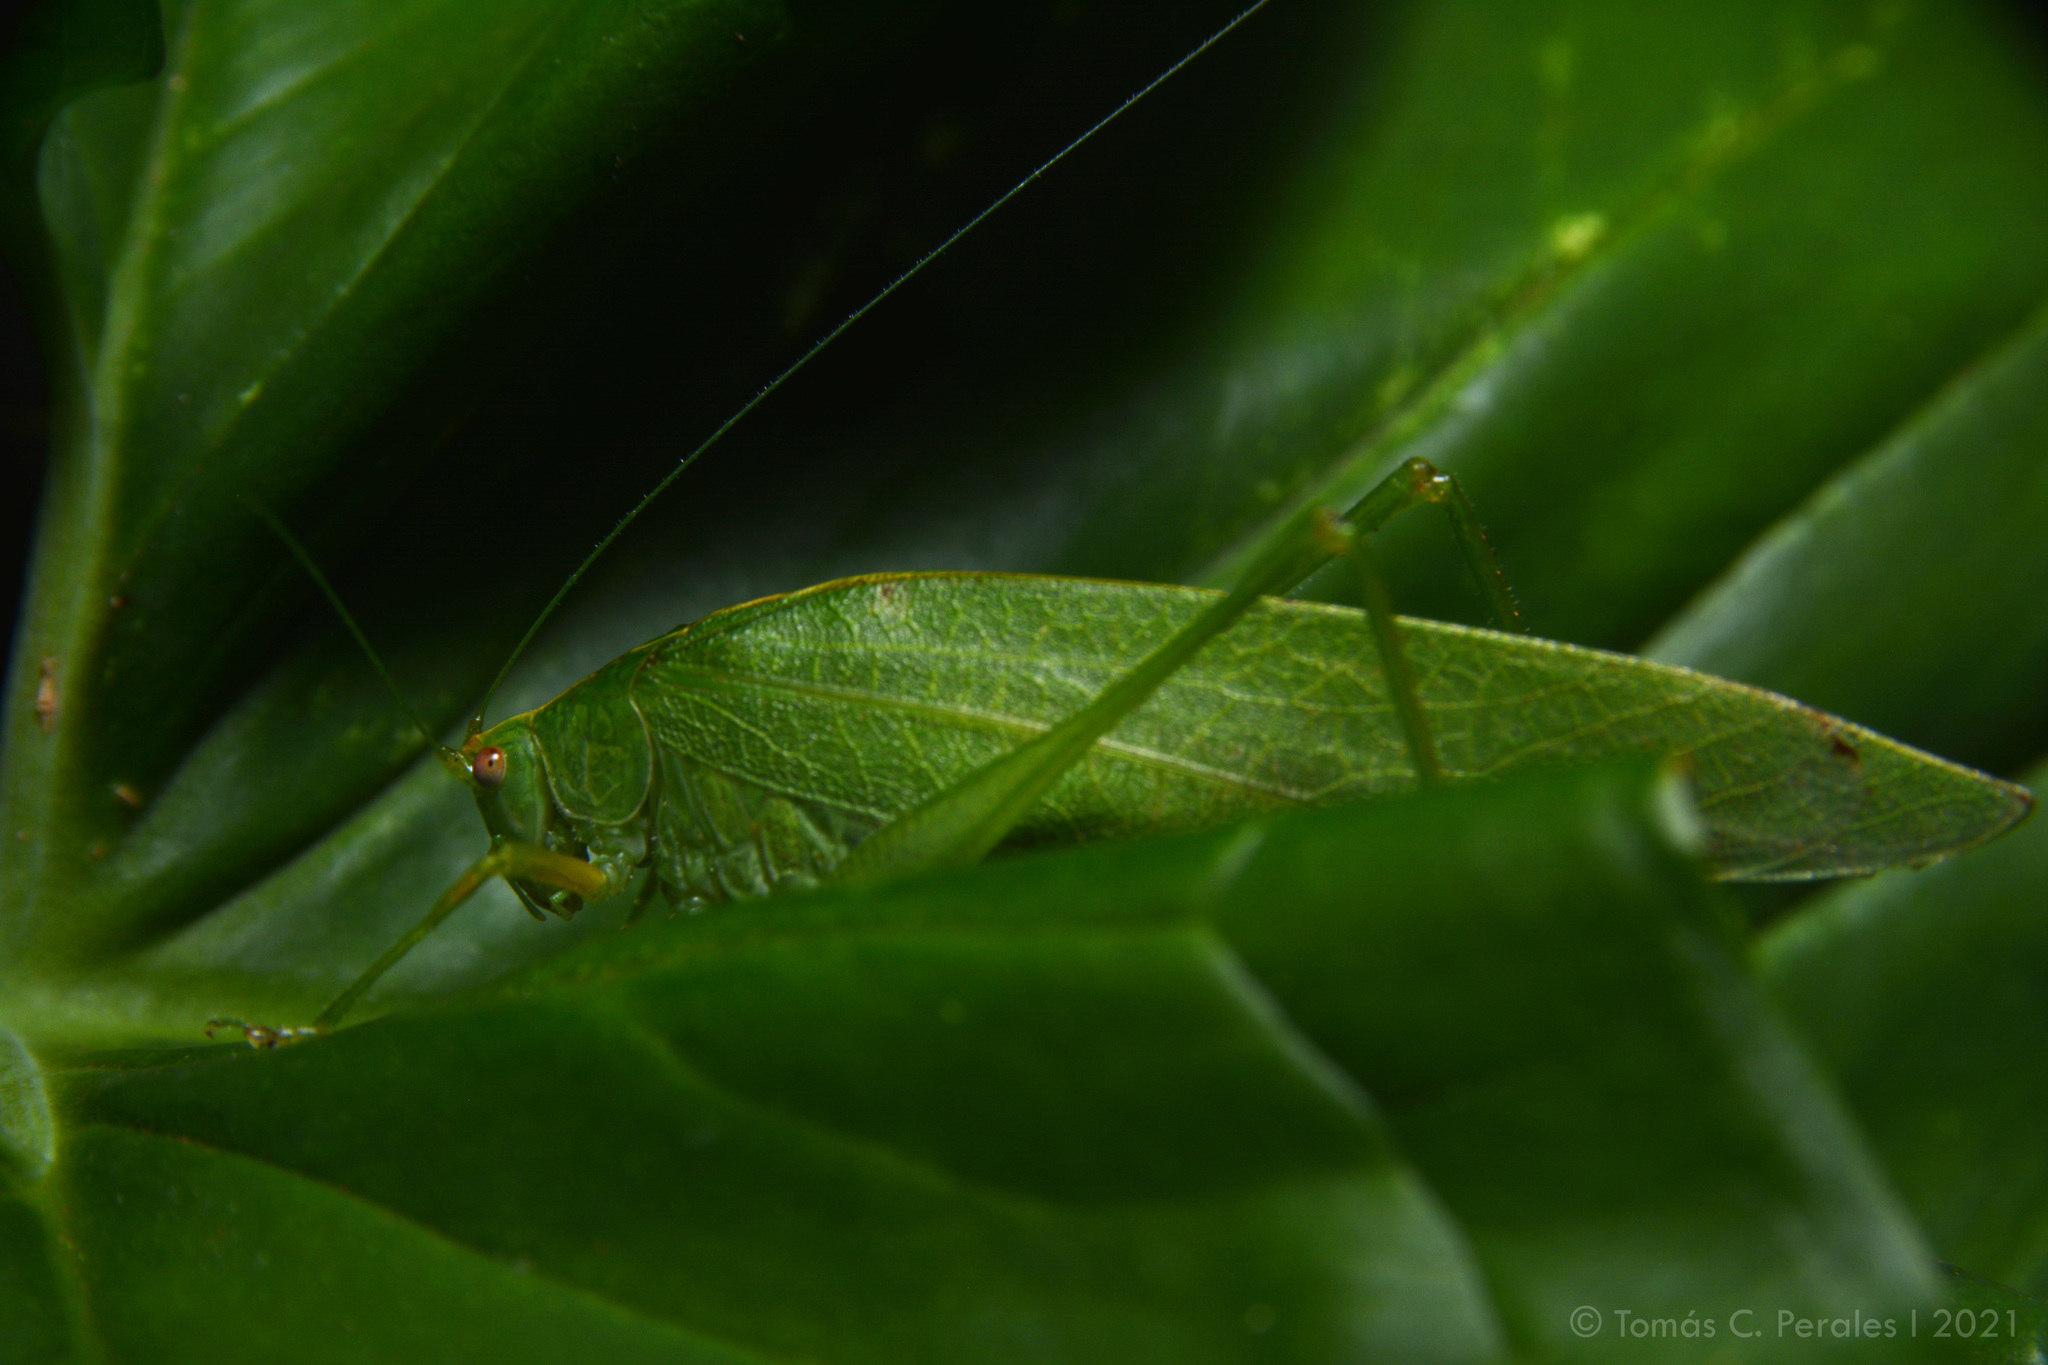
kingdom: Animalia
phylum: Arthropoda
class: Insecta
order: Orthoptera
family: Tettigoniidae
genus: Grammadera
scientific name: Grammadera clara
